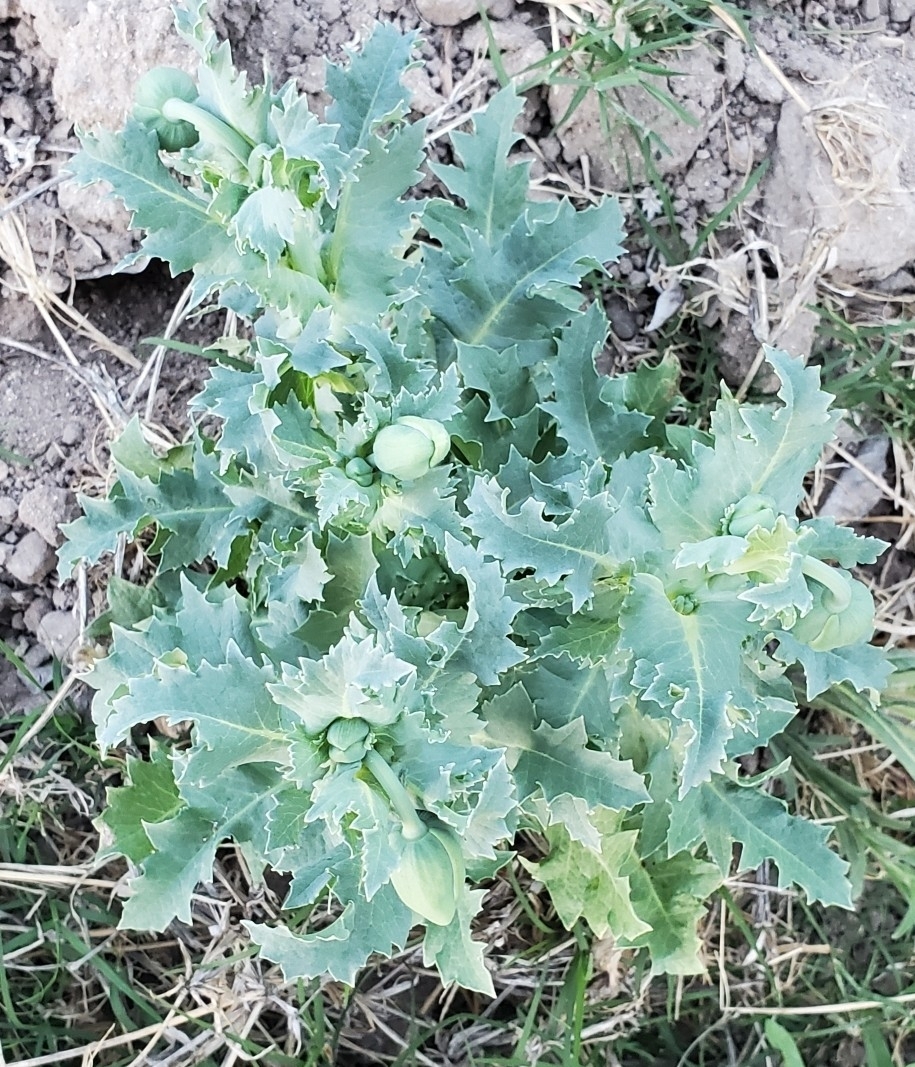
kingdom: Plantae
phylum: Tracheophyta
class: Magnoliopsida
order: Ranunculales
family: Papaveraceae
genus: Papaver
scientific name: Papaver somniferum
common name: Opium poppy
